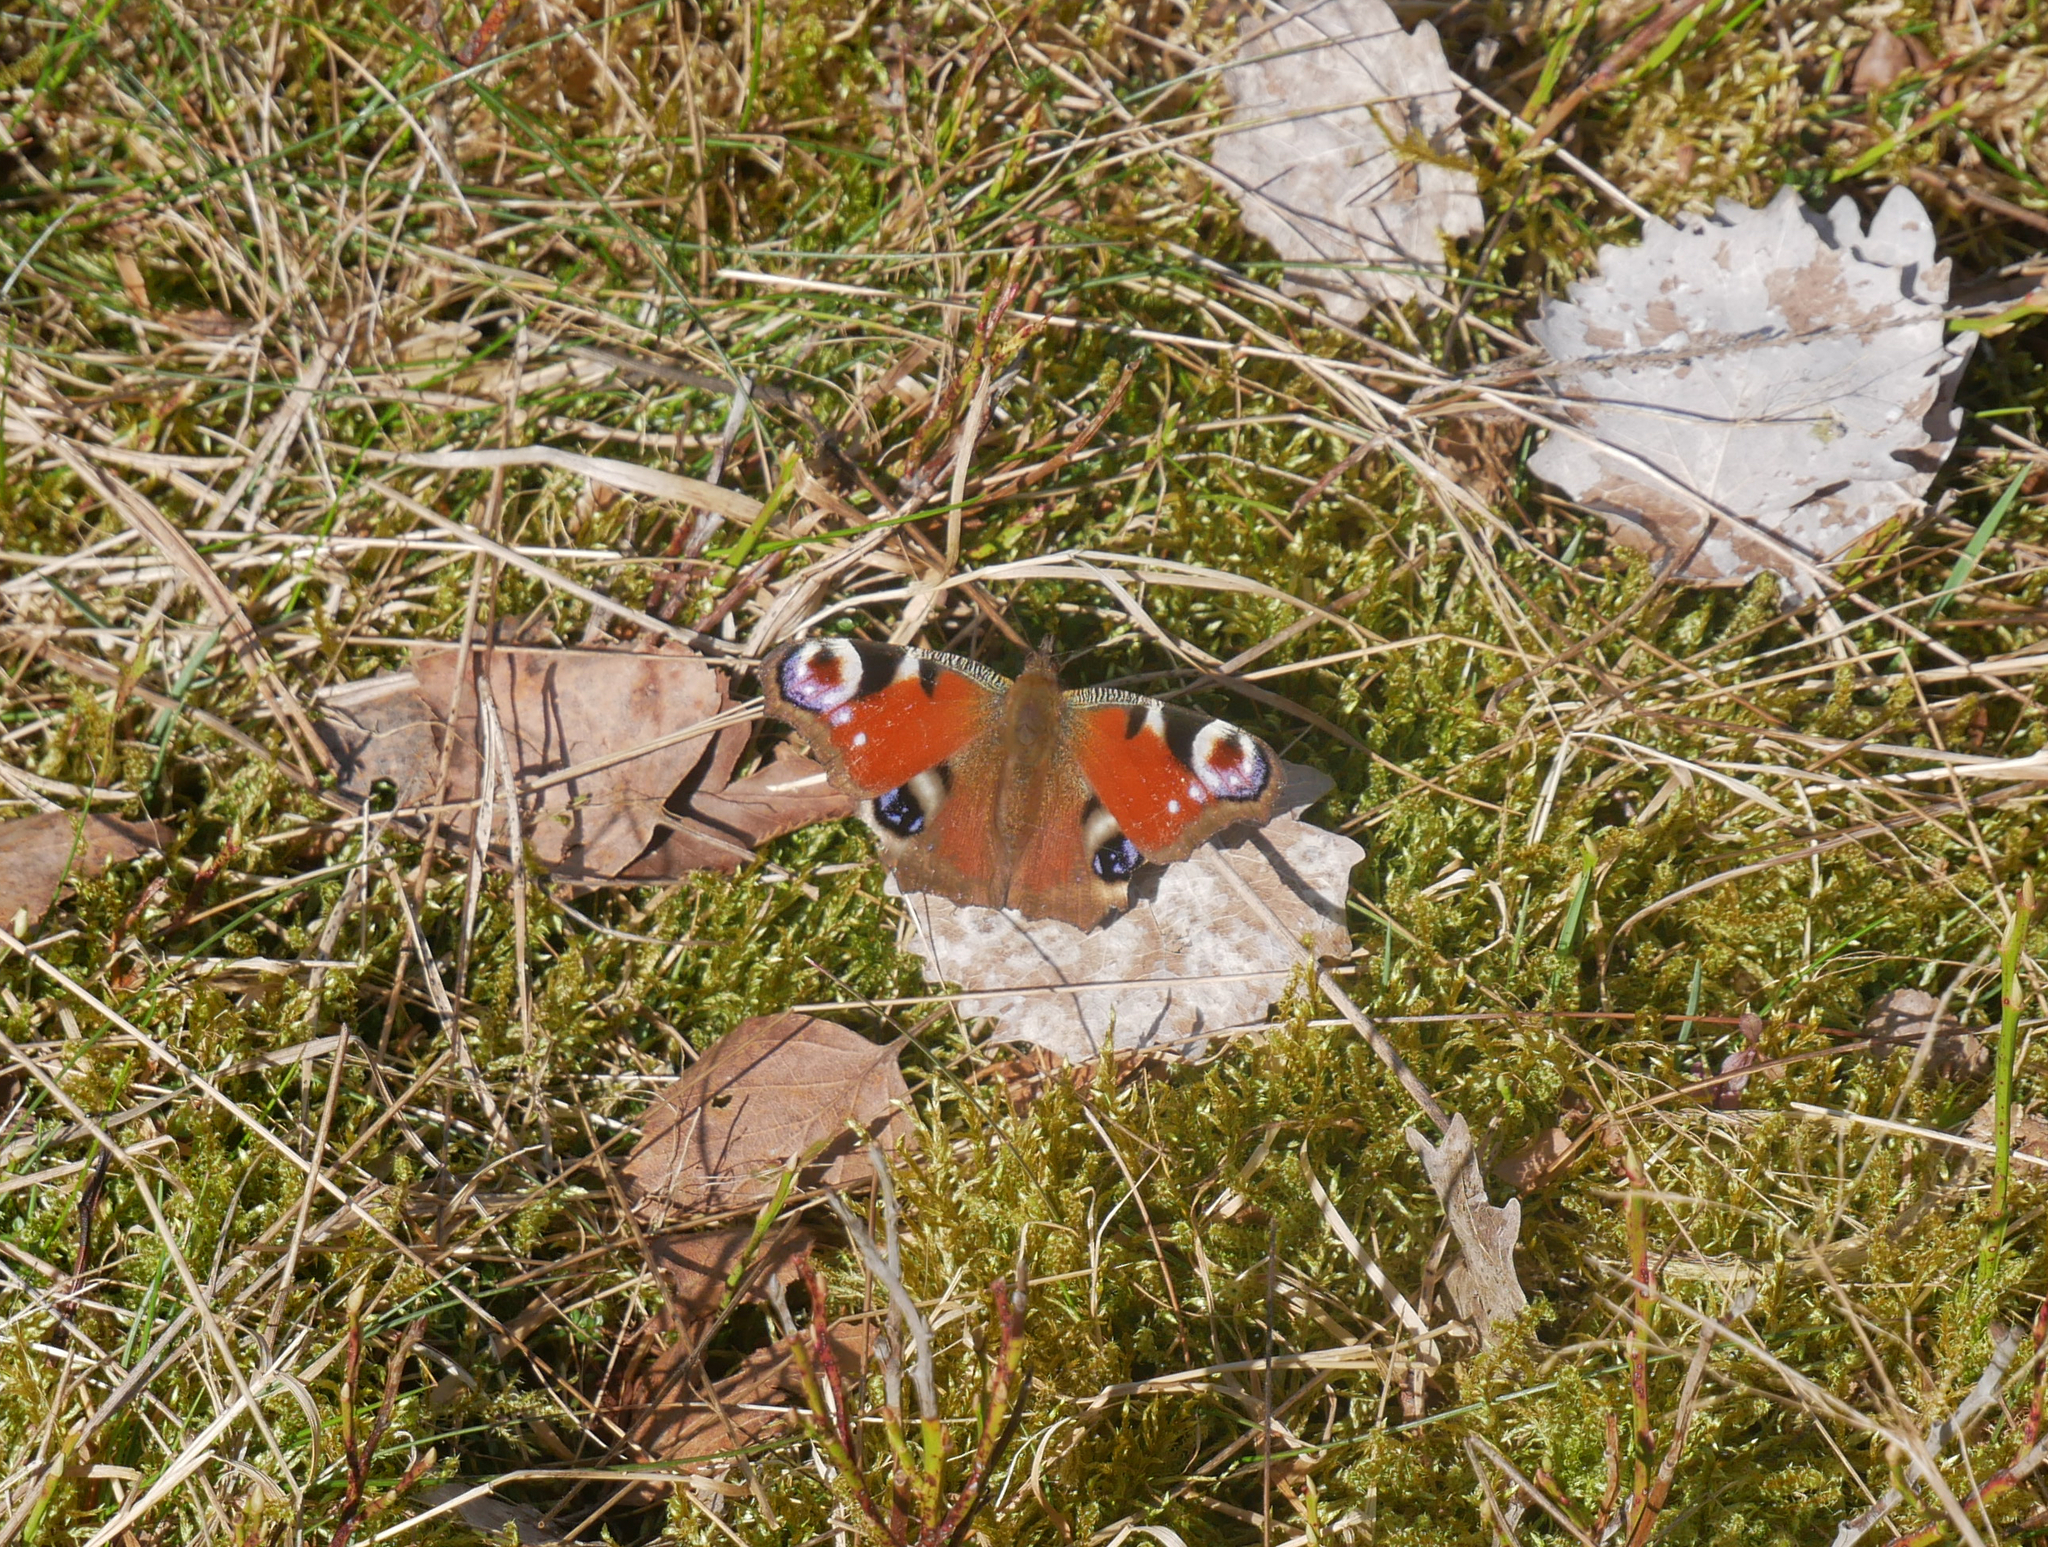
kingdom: Animalia
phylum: Arthropoda
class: Insecta
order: Lepidoptera
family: Nymphalidae
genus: Aglais
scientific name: Aglais io
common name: Peacock
